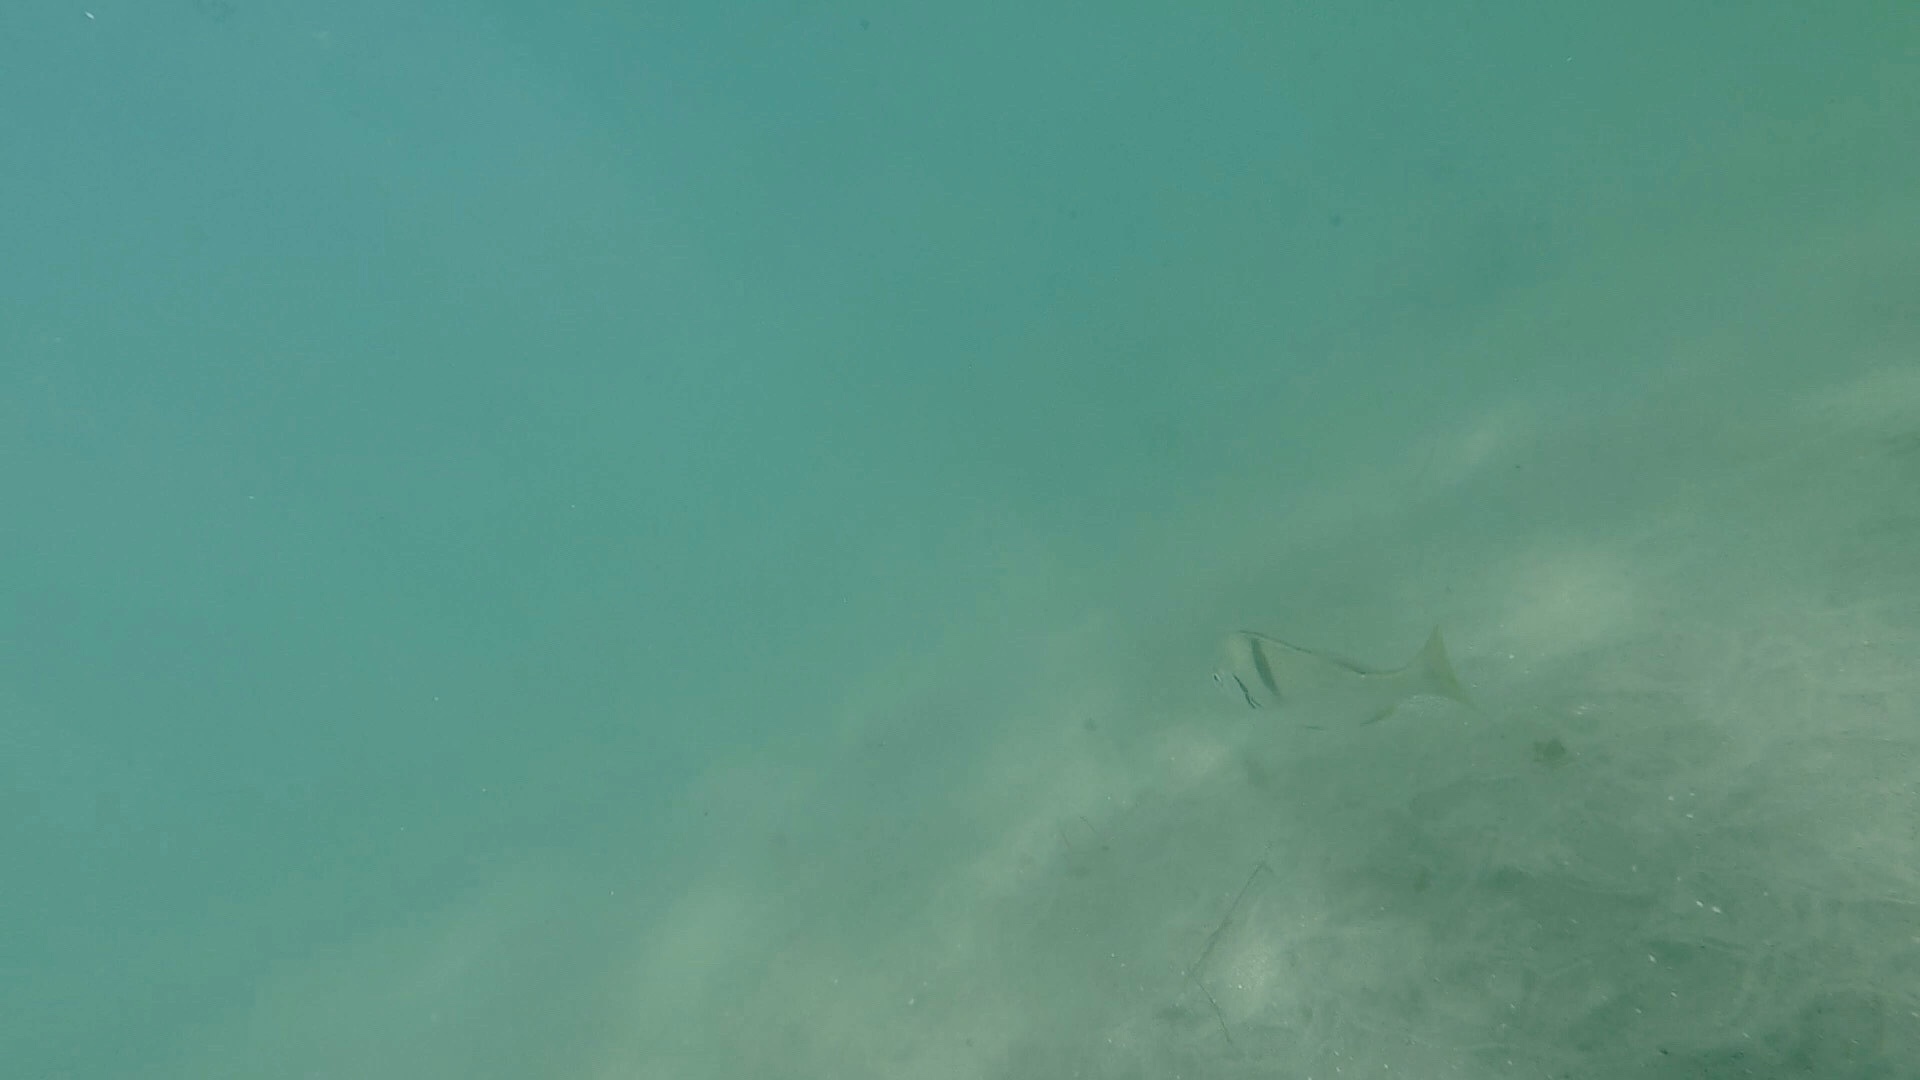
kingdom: Animalia
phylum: Chordata
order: Perciformes
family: Haemulidae
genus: Anisotremus
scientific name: Anisotremus davidsonii
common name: Grunt
